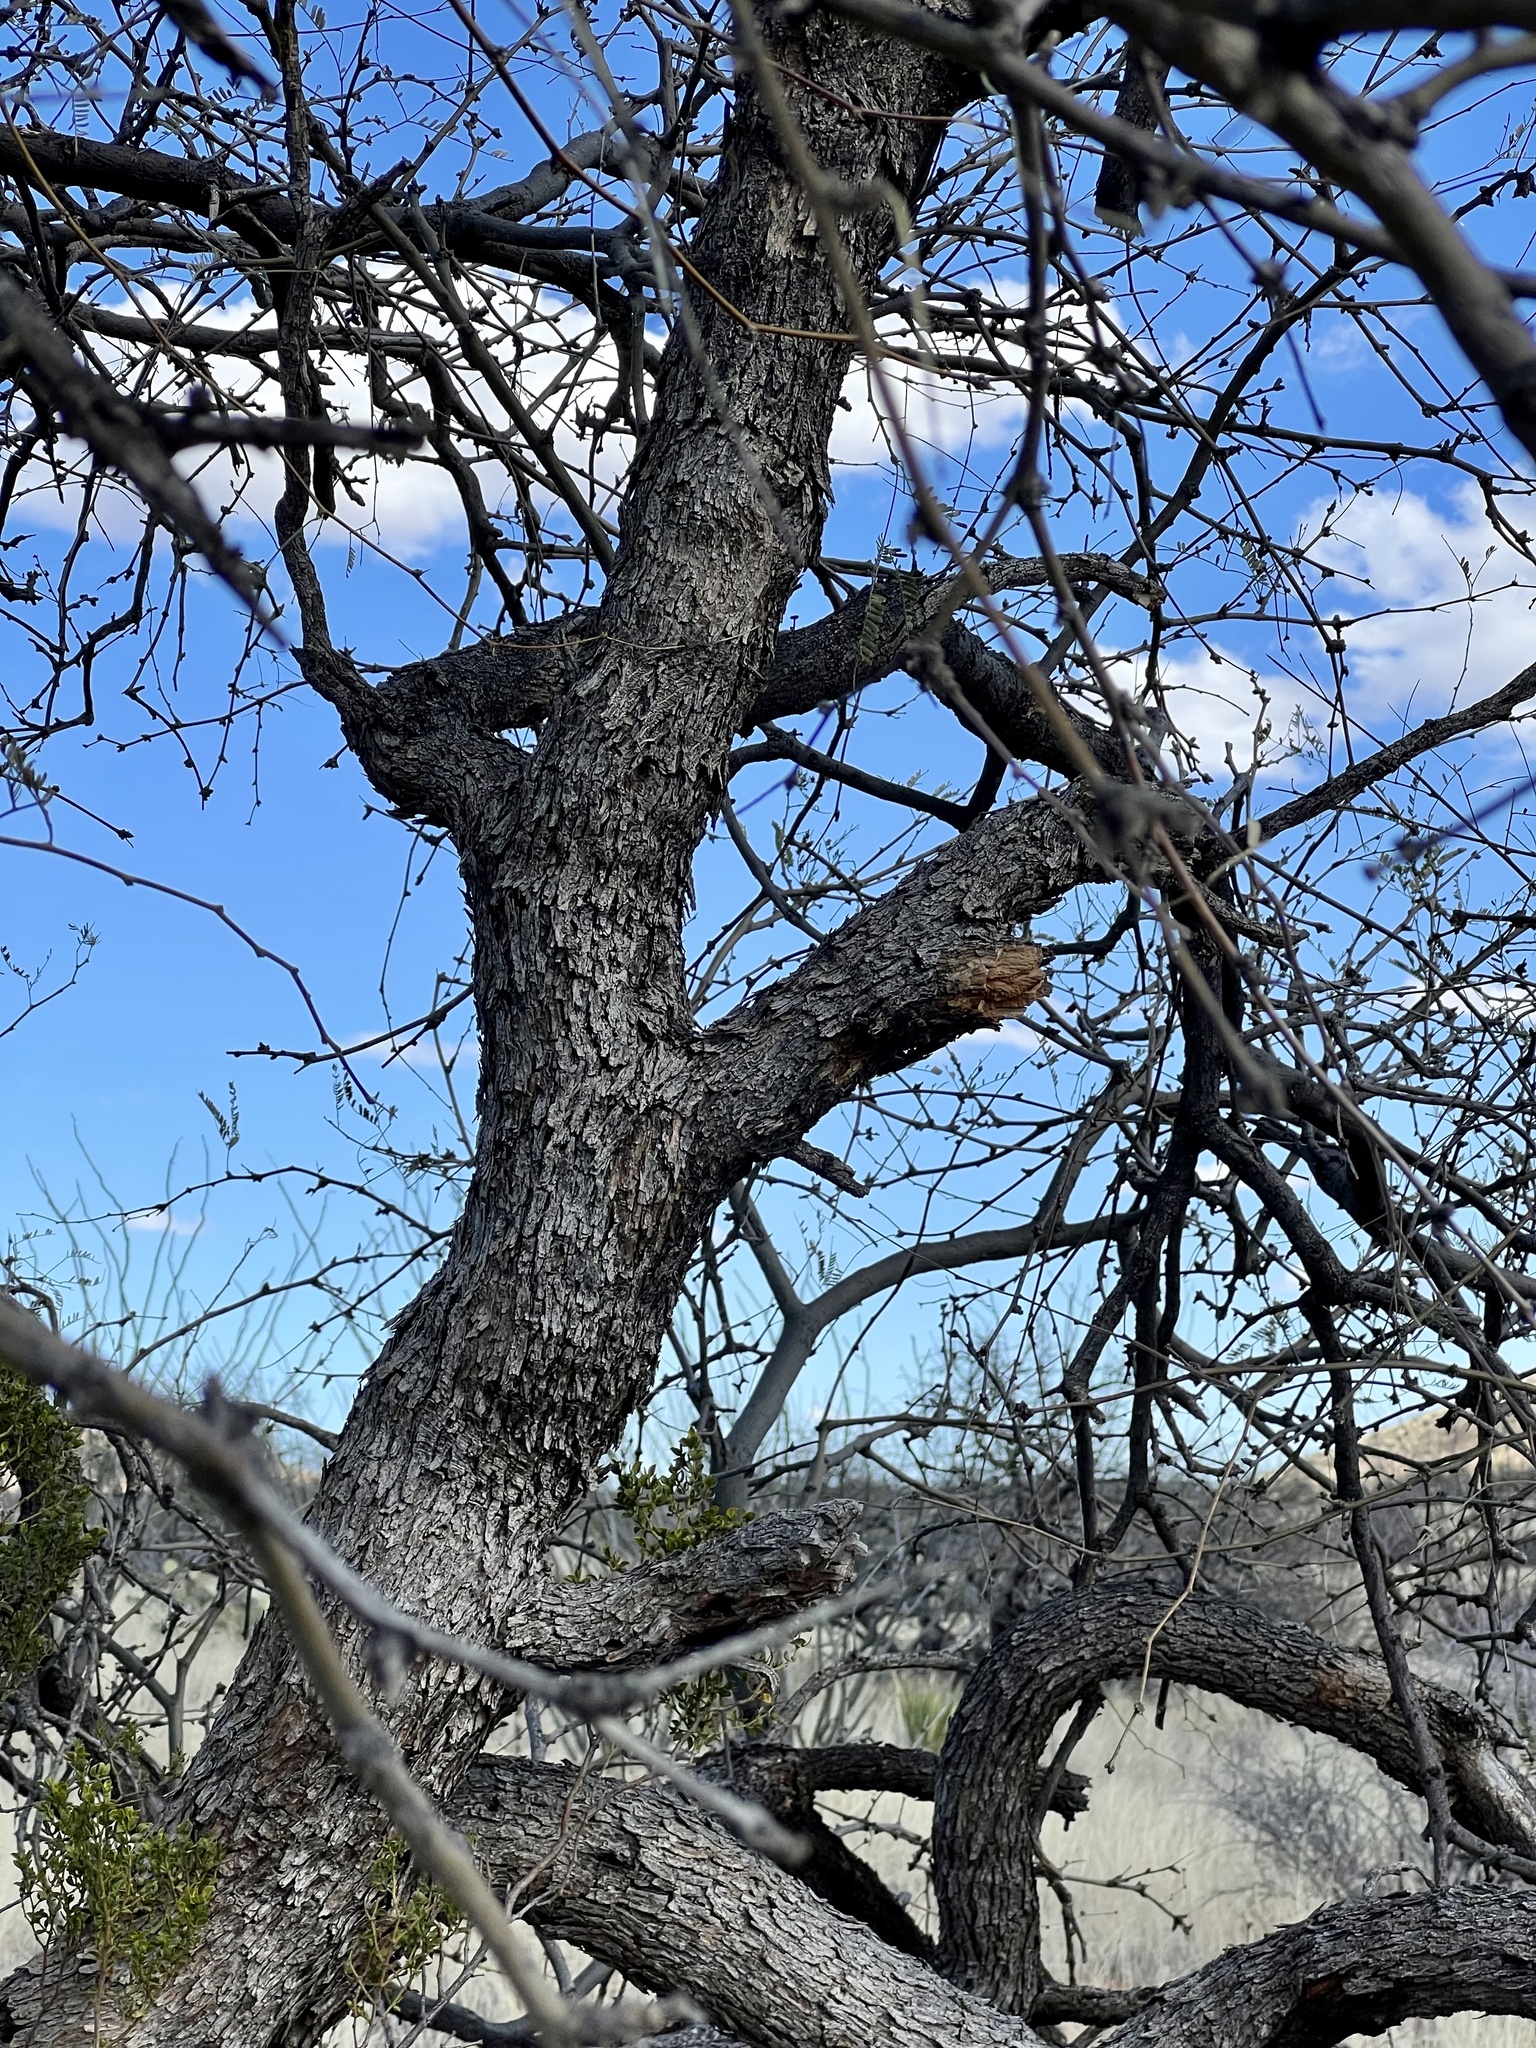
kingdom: Plantae
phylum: Tracheophyta
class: Magnoliopsida
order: Fabales
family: Fabaceae
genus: Prosopis
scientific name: Prosopis velutina
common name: Velvet mesquite
